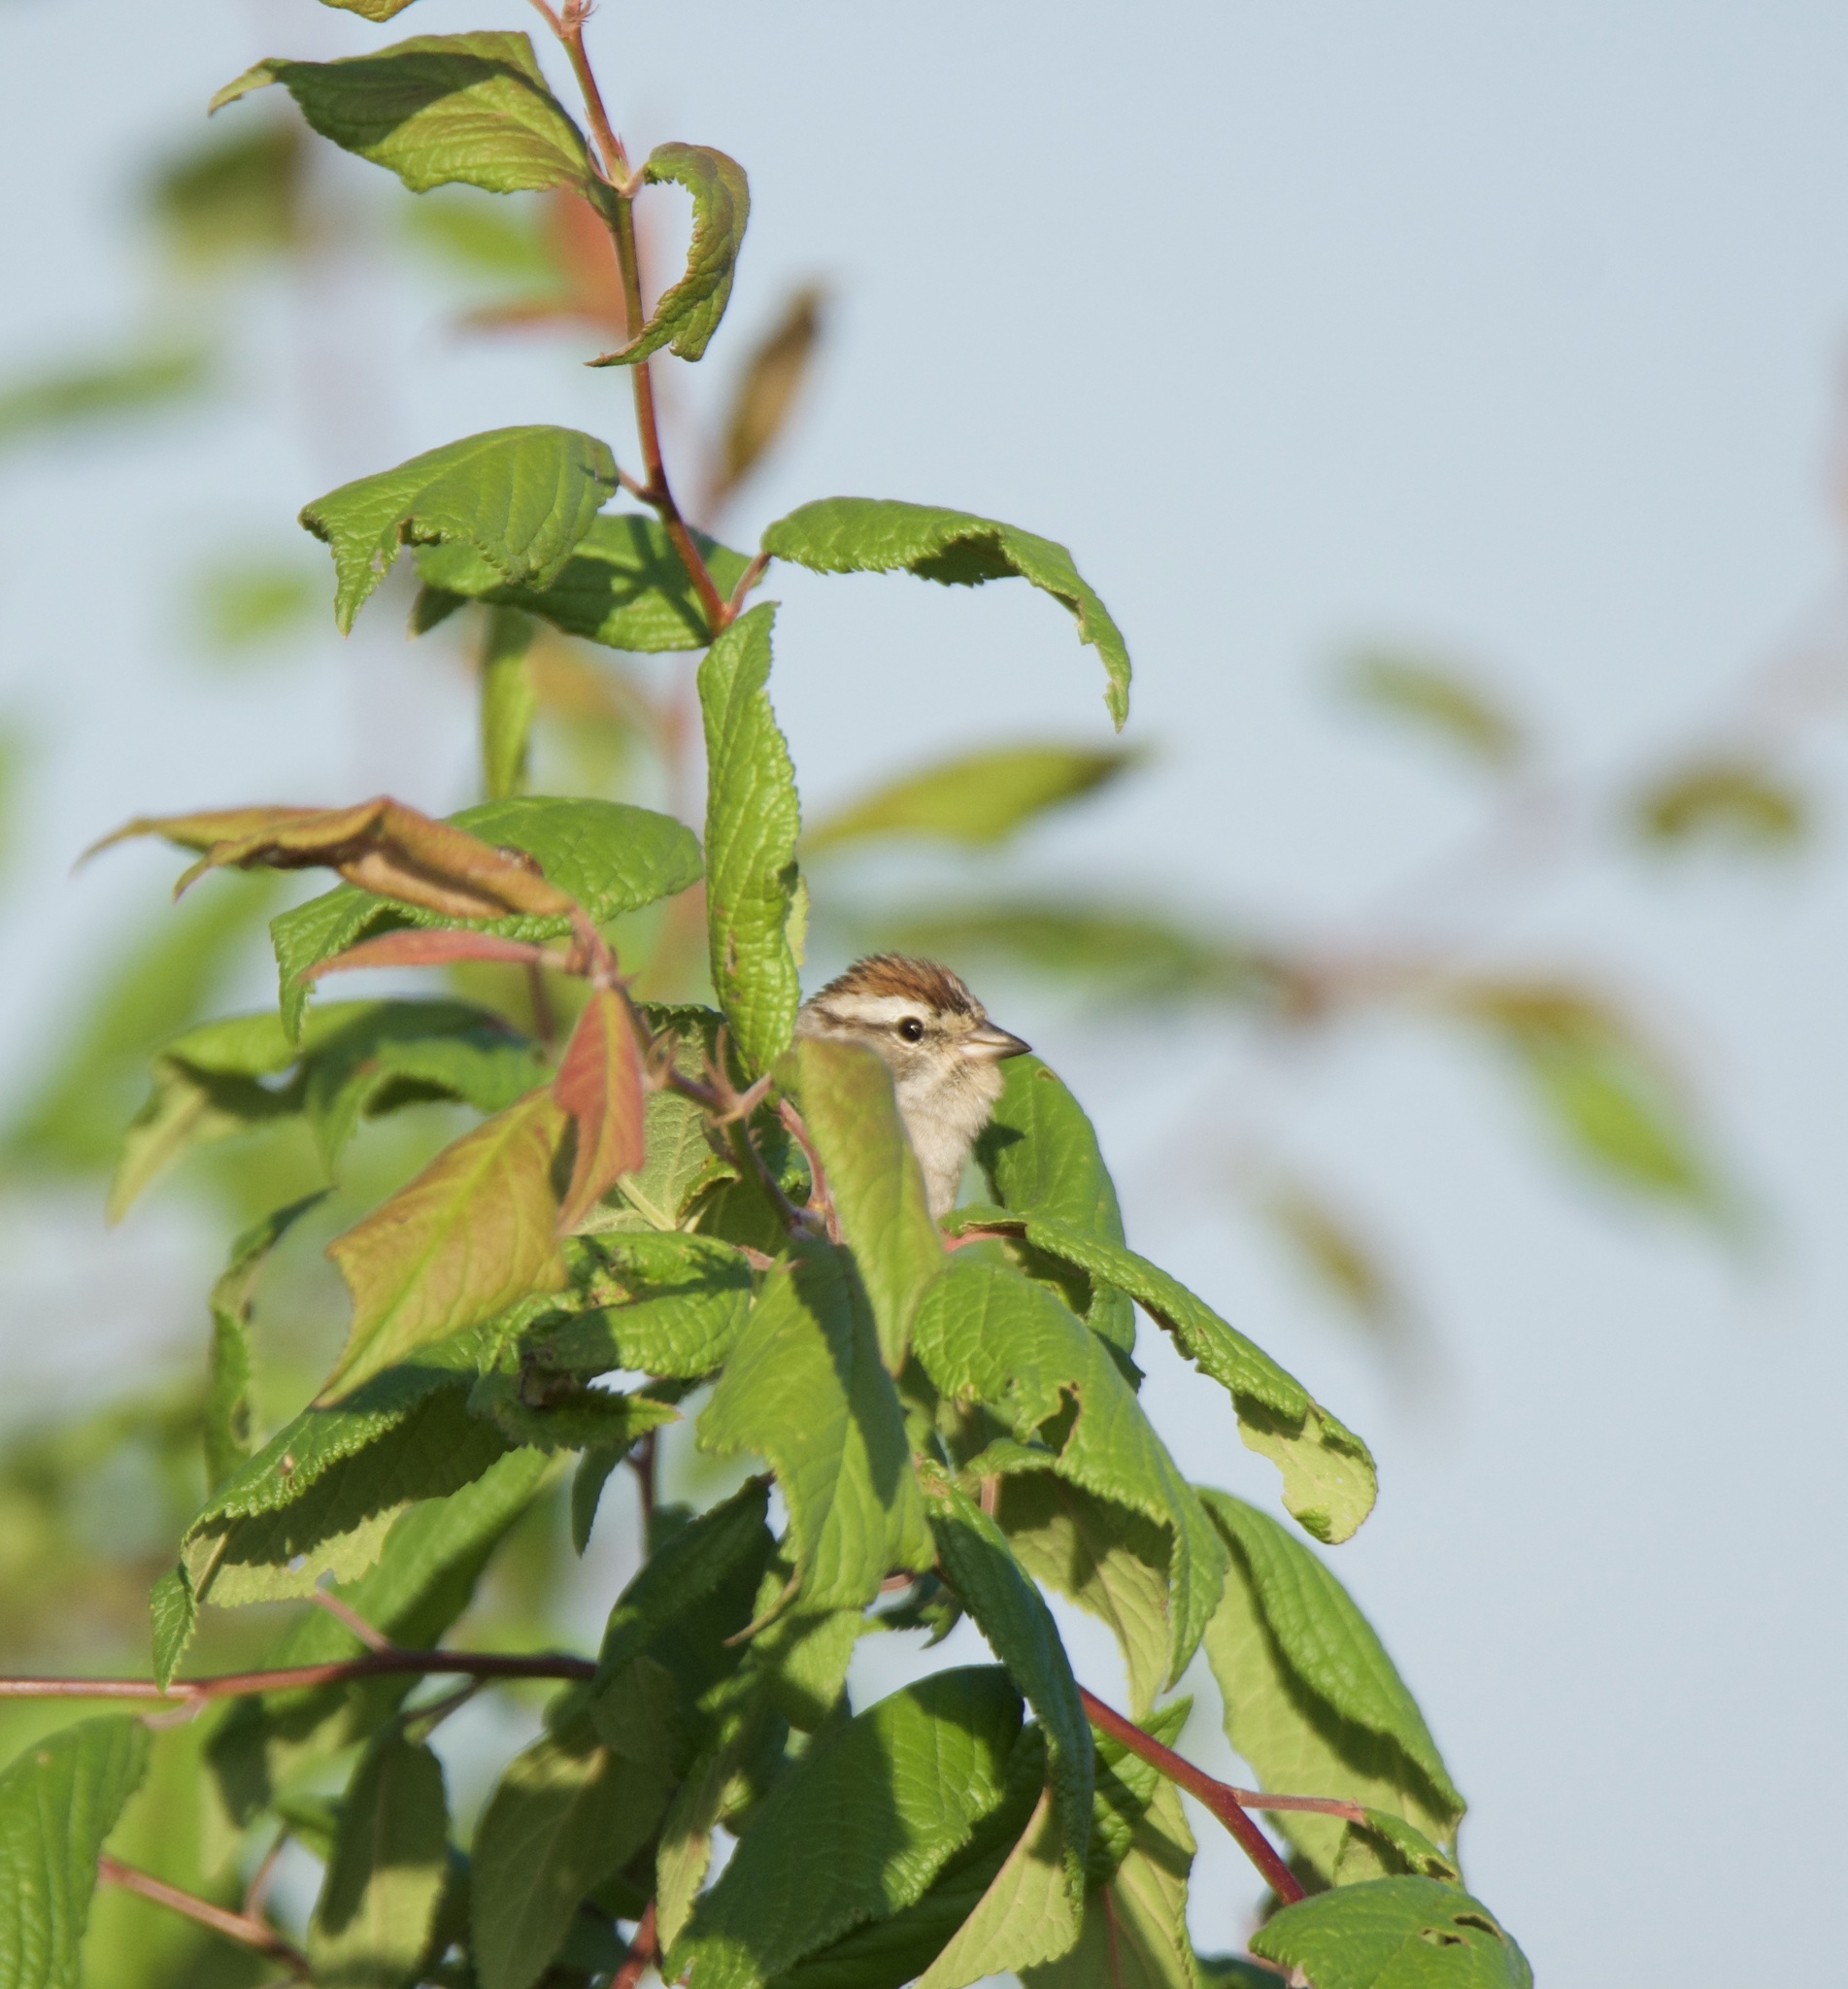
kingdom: Animalia
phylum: Chordata
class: Aves
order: Passeriformes
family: Passerellidae
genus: Spizella
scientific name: Spizella passerina
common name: Chipping sparrow
